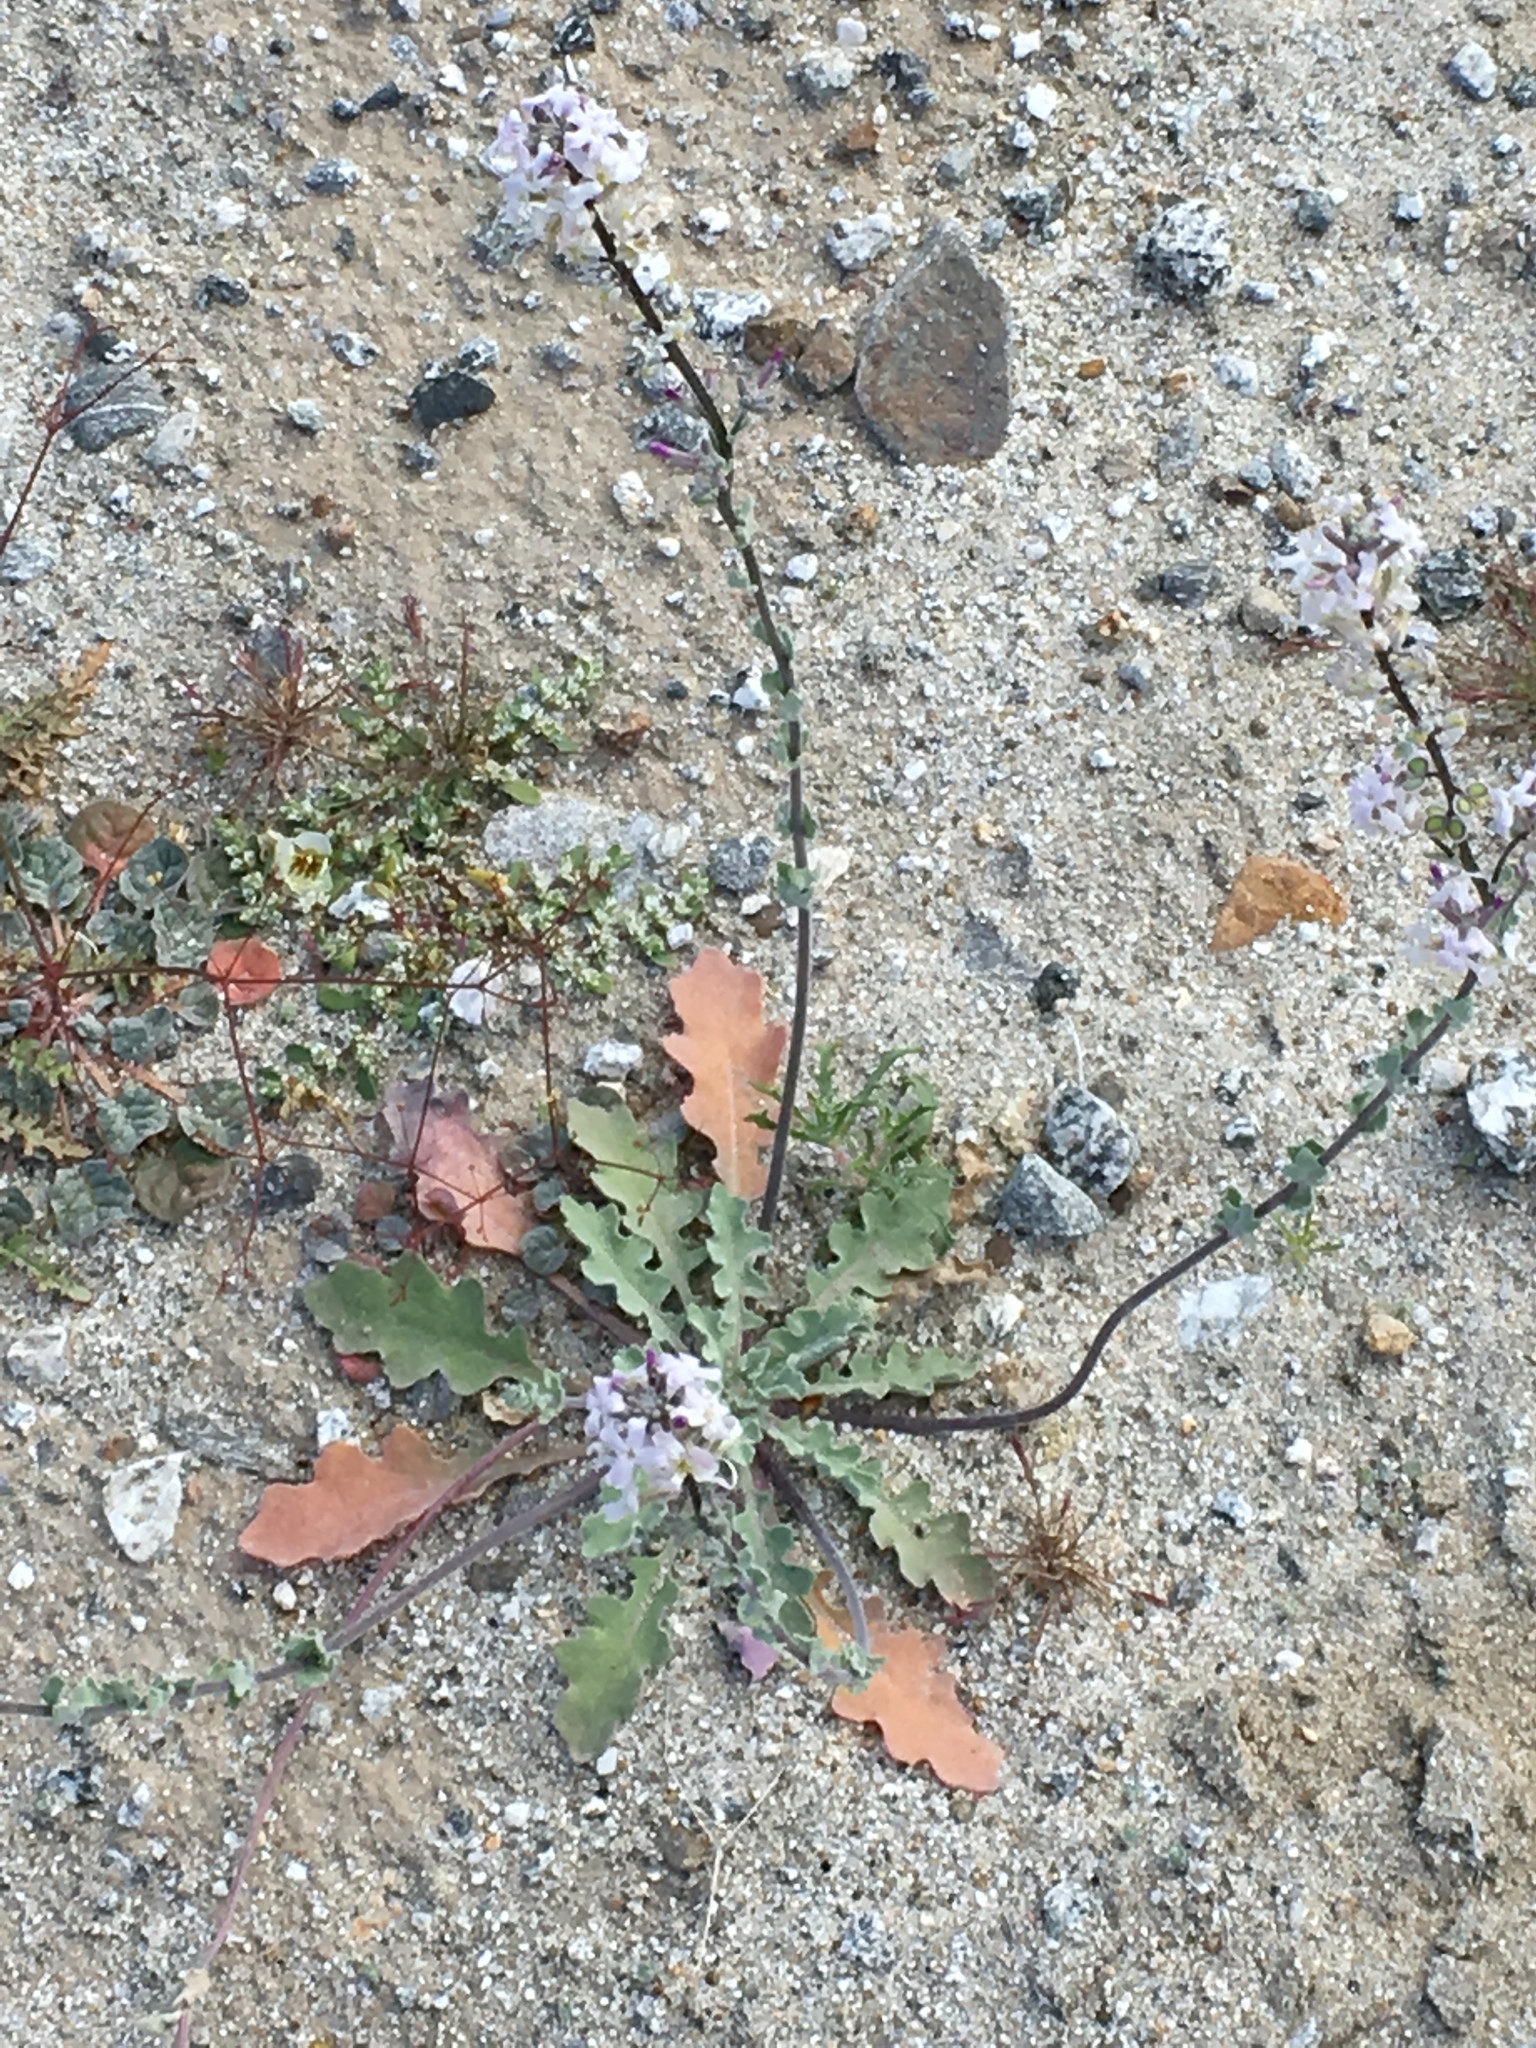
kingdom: Plantae
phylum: Tracheophyta
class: Magnoliopsida
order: Brassicales
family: Brassicaceae
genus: Dithyrea
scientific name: Dithyrea californica
